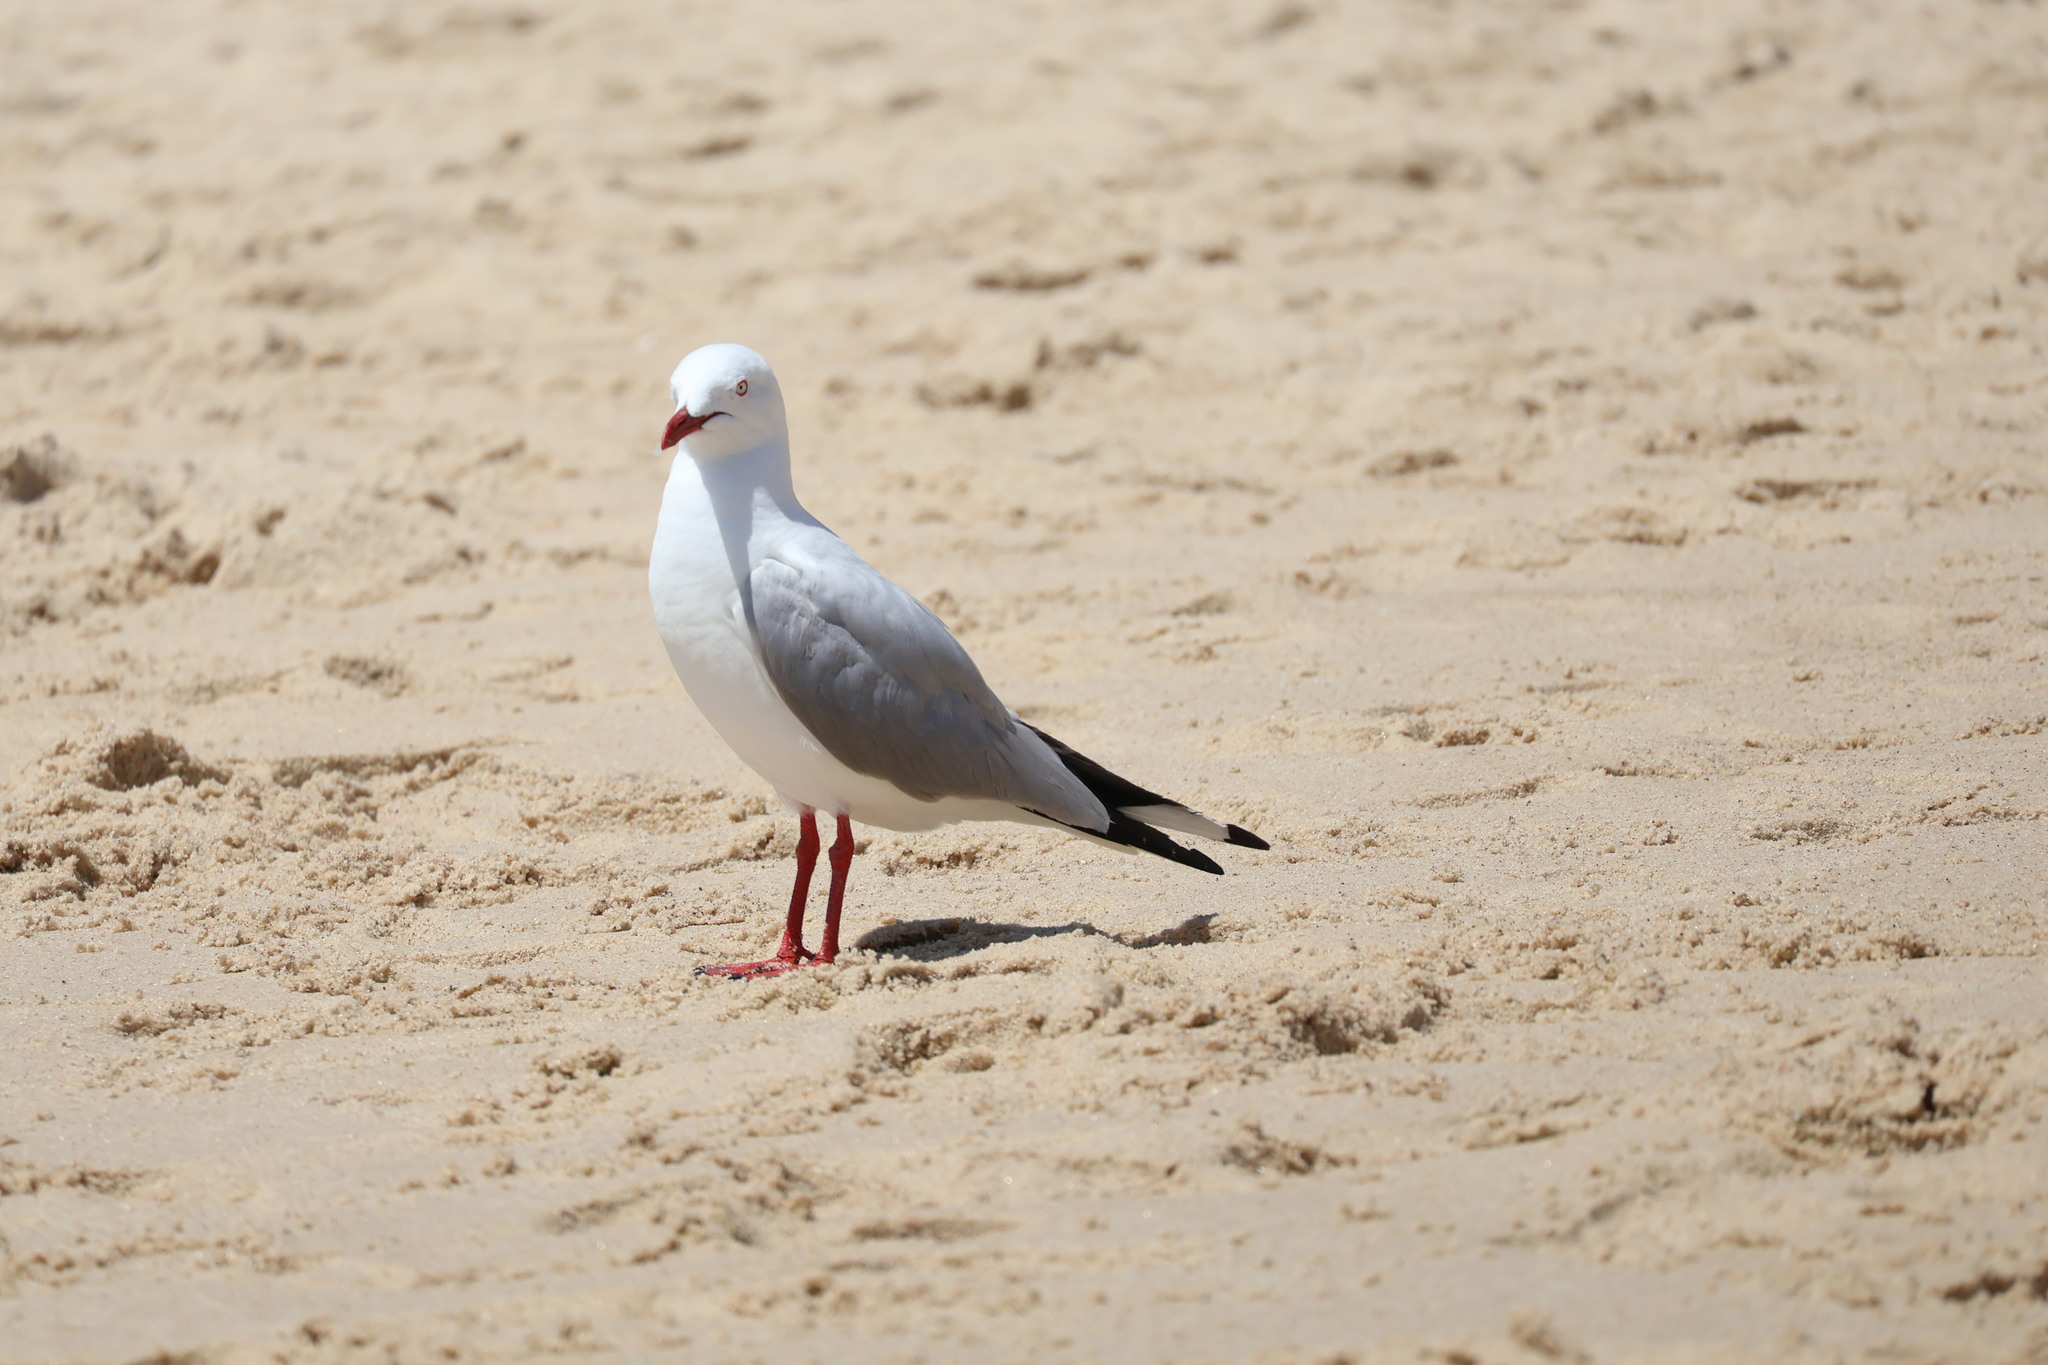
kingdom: Animalia
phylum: Chordata
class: Aves
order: Charadriiformes
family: Laridae
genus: Chroicocephalus
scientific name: Chroicocephalus novaehollandiae
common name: Silver gull
